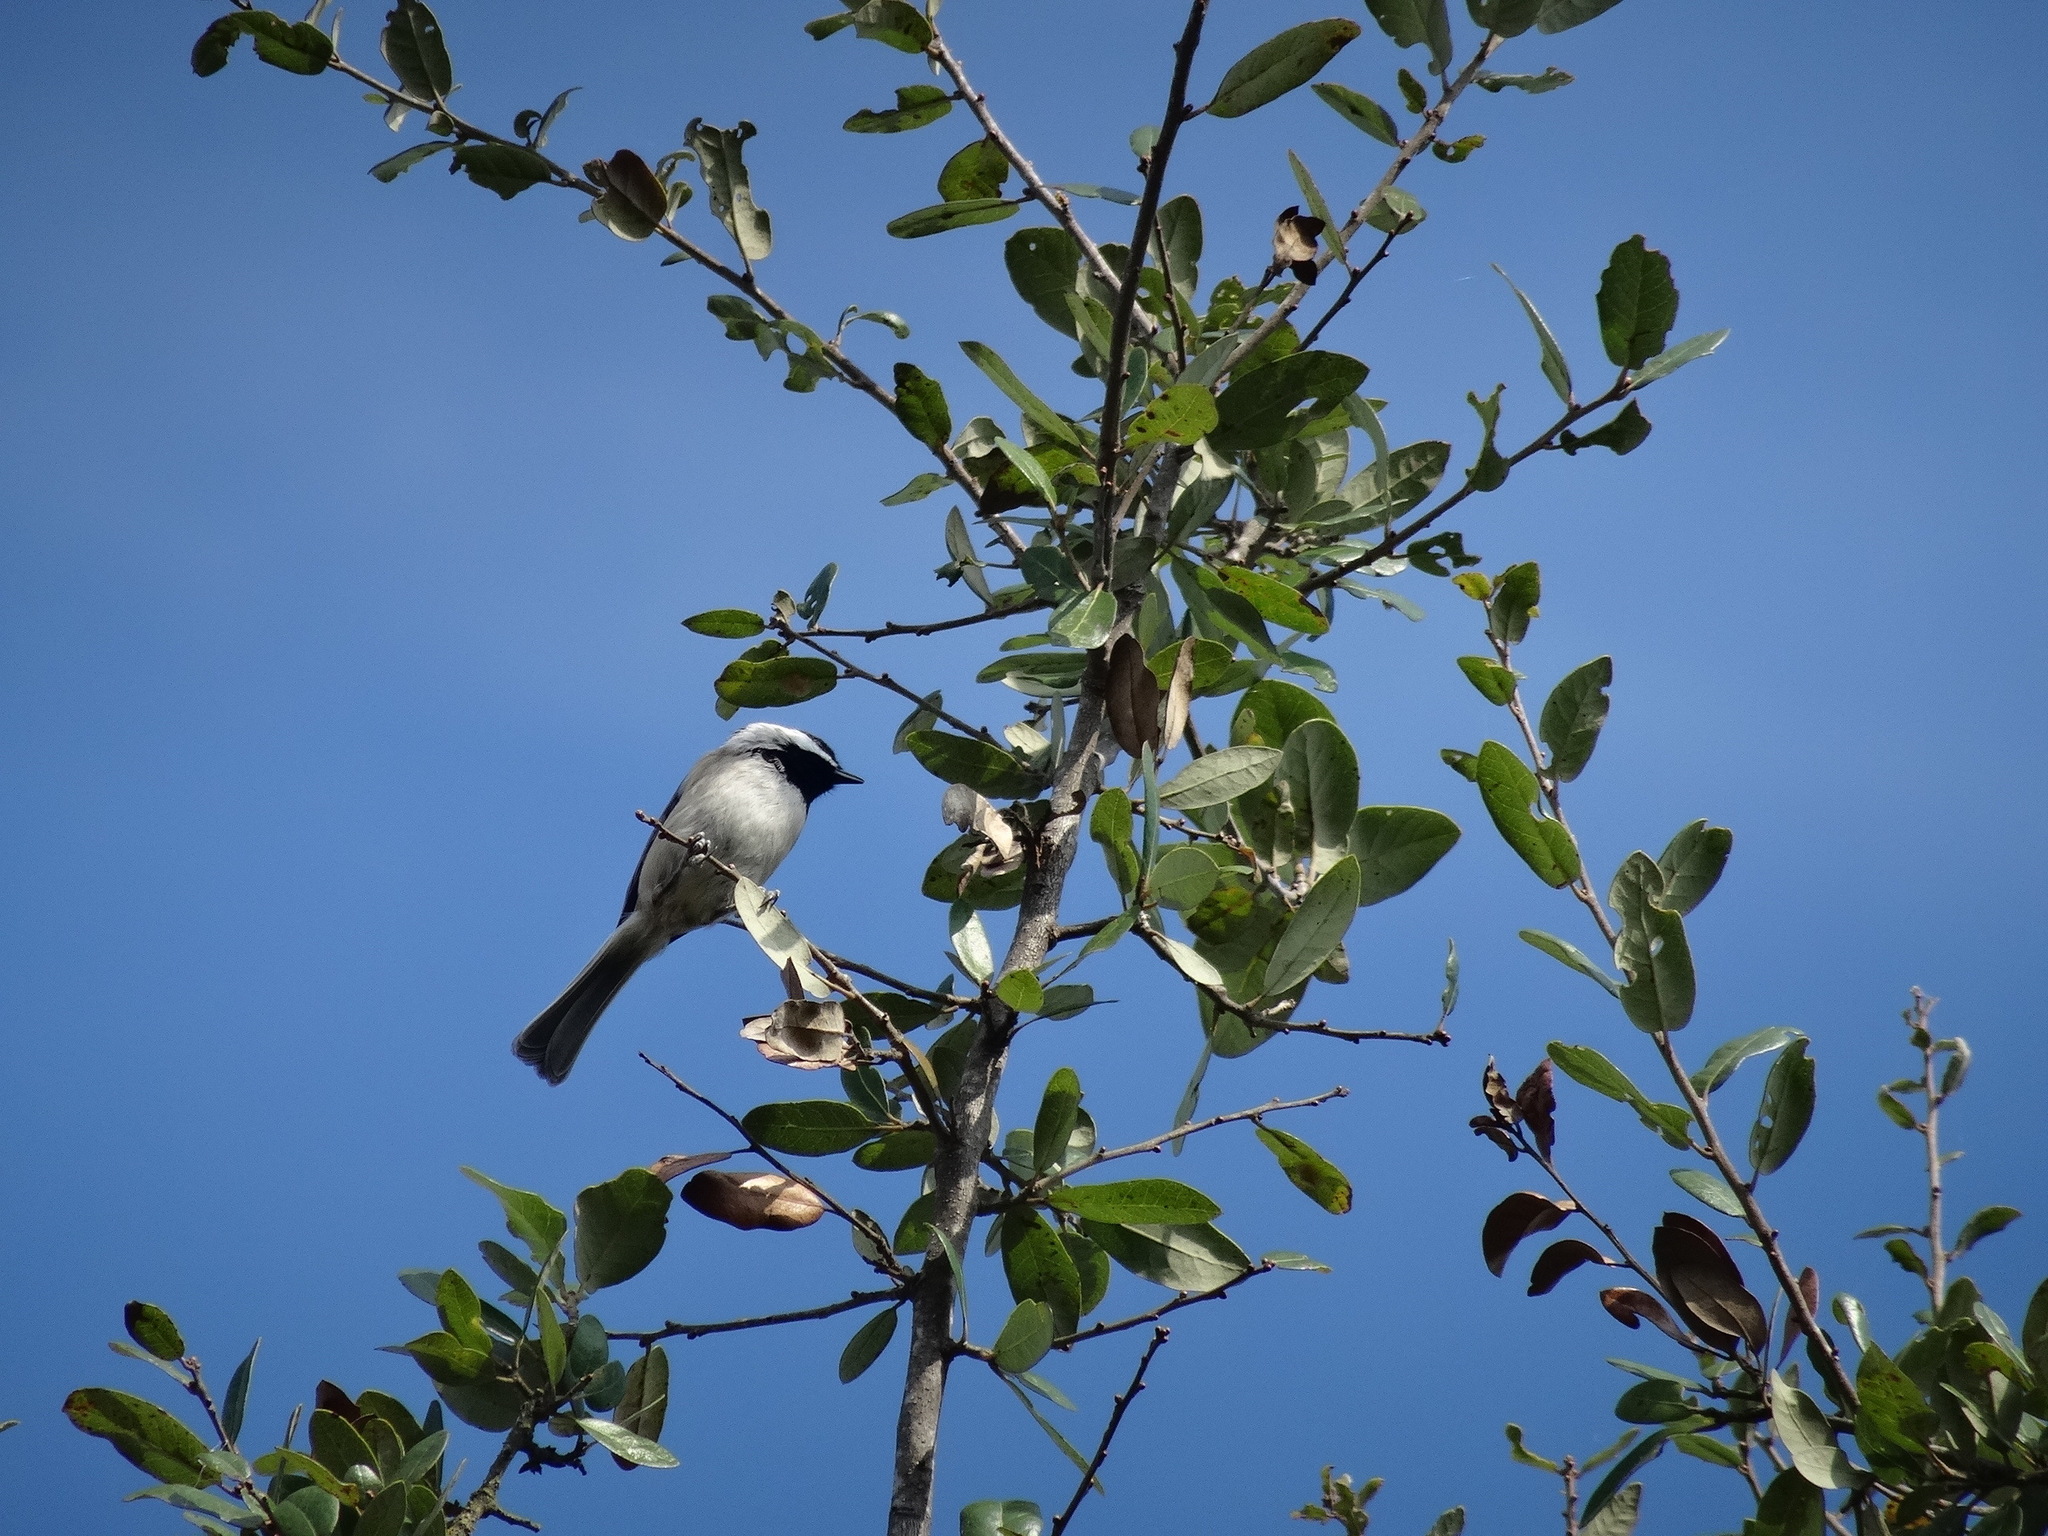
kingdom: Animalia
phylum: Chordata
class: Aves
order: Passeriformes
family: Paridae
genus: Poecile
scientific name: Poecile carolinensis
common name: Carolina chickadee
